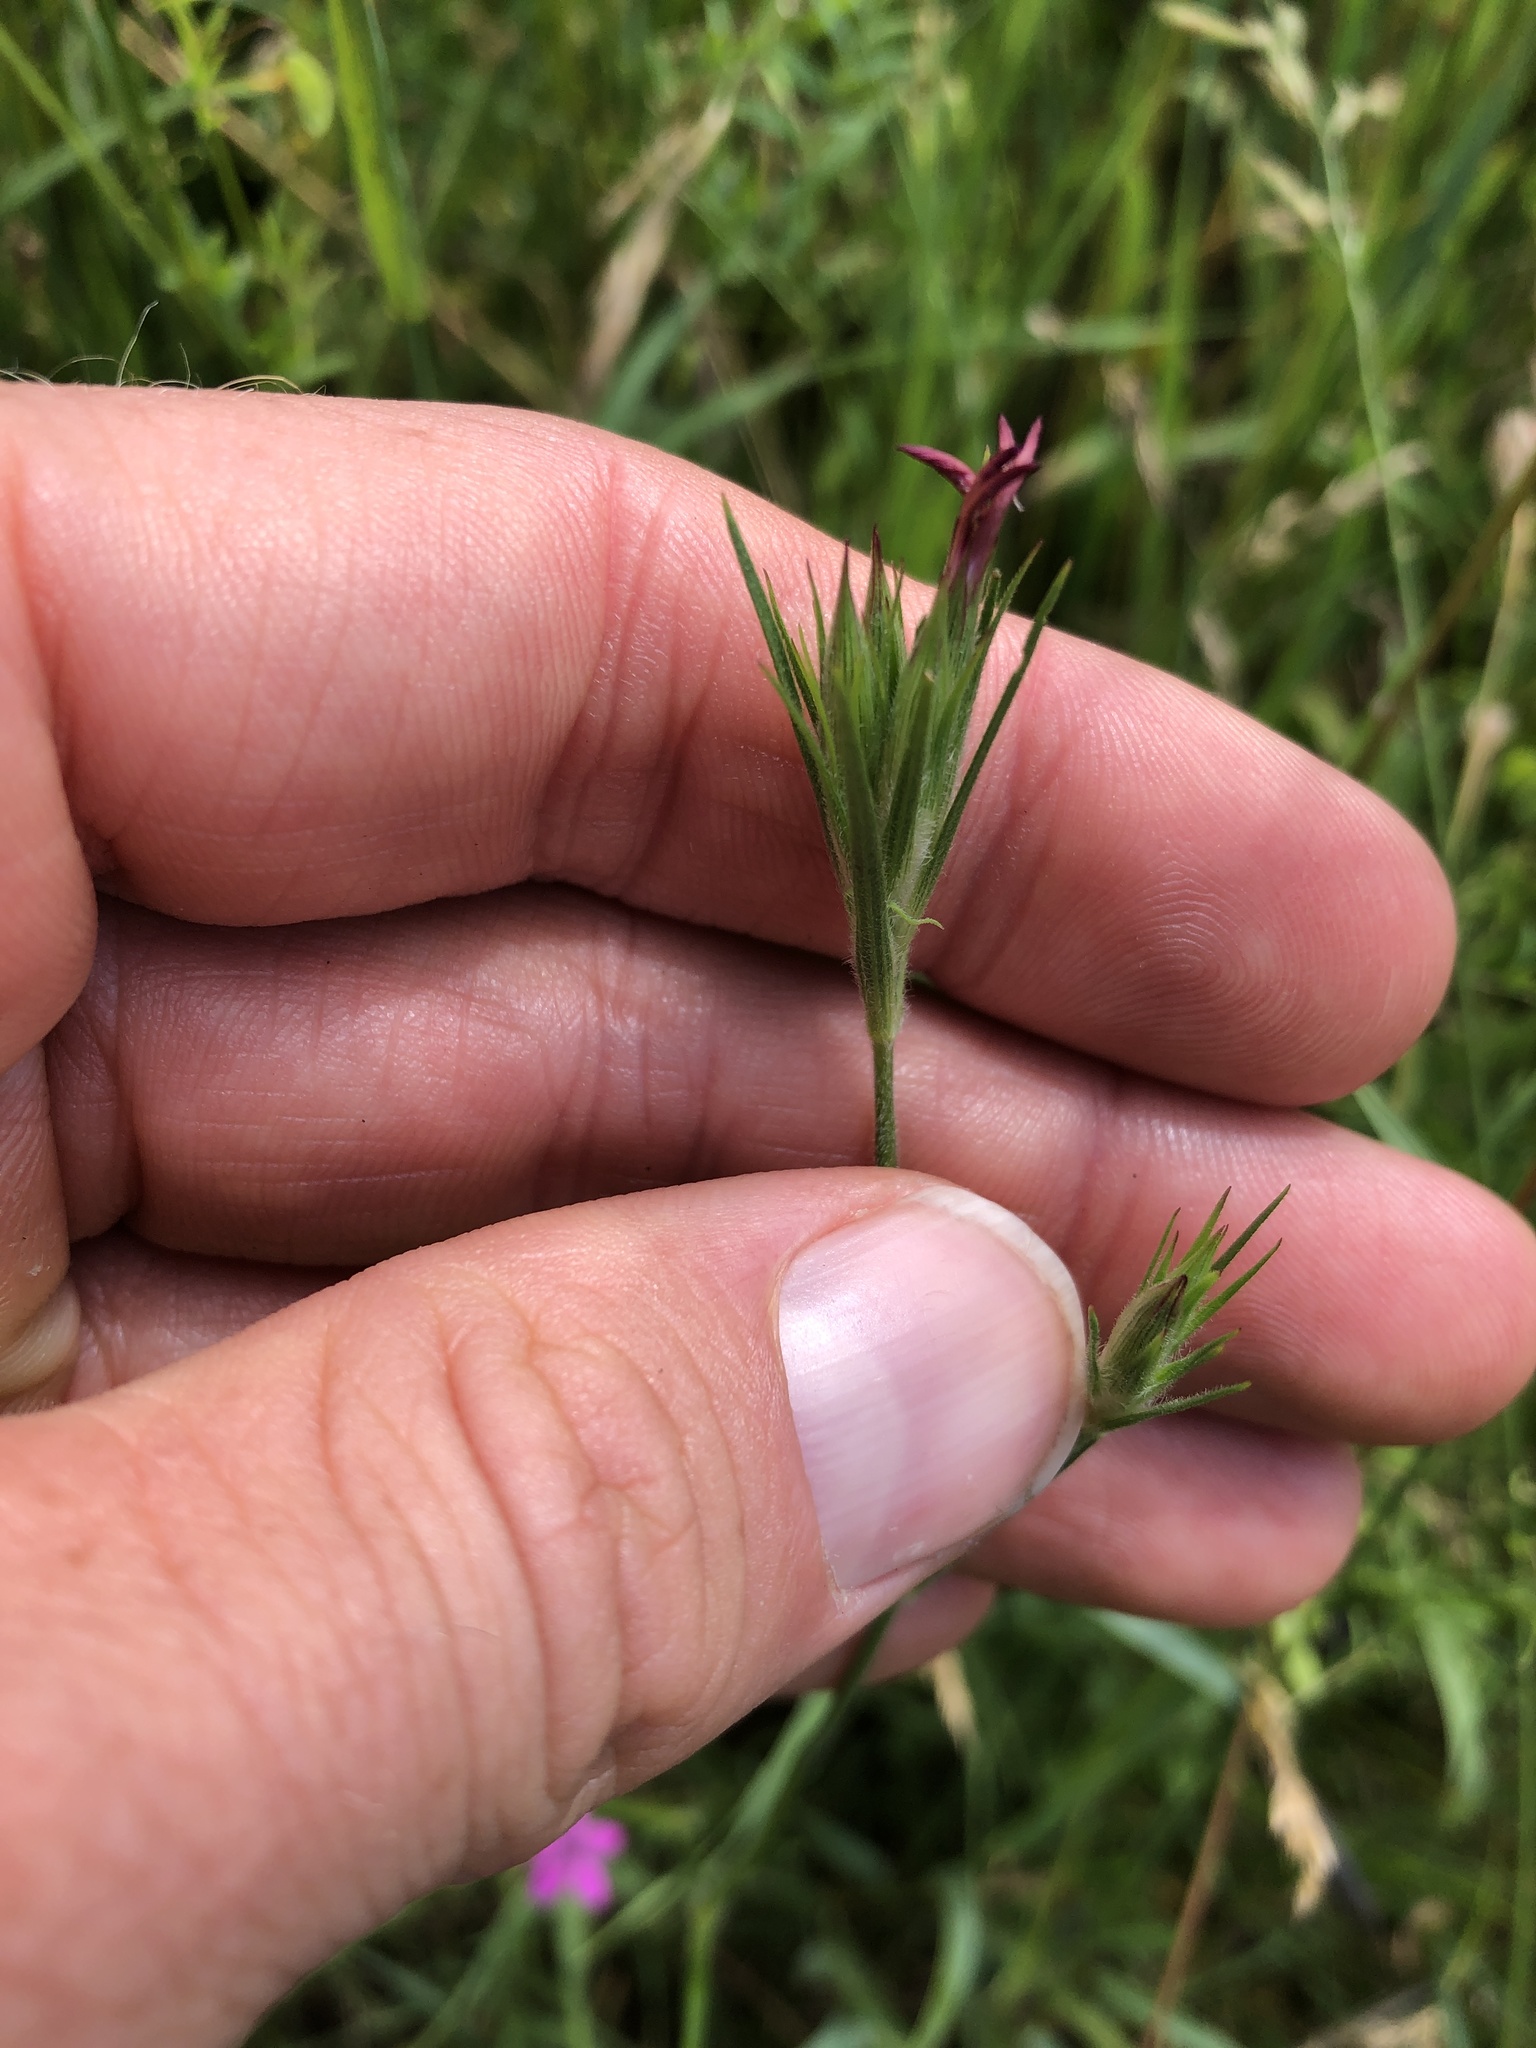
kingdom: Plantae
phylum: Tracheophyta
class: Magnoliopsida
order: Caryophyllales
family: Caryophyllaceae
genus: Dianthus
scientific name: Dianthus armeria
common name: Deptford pink
